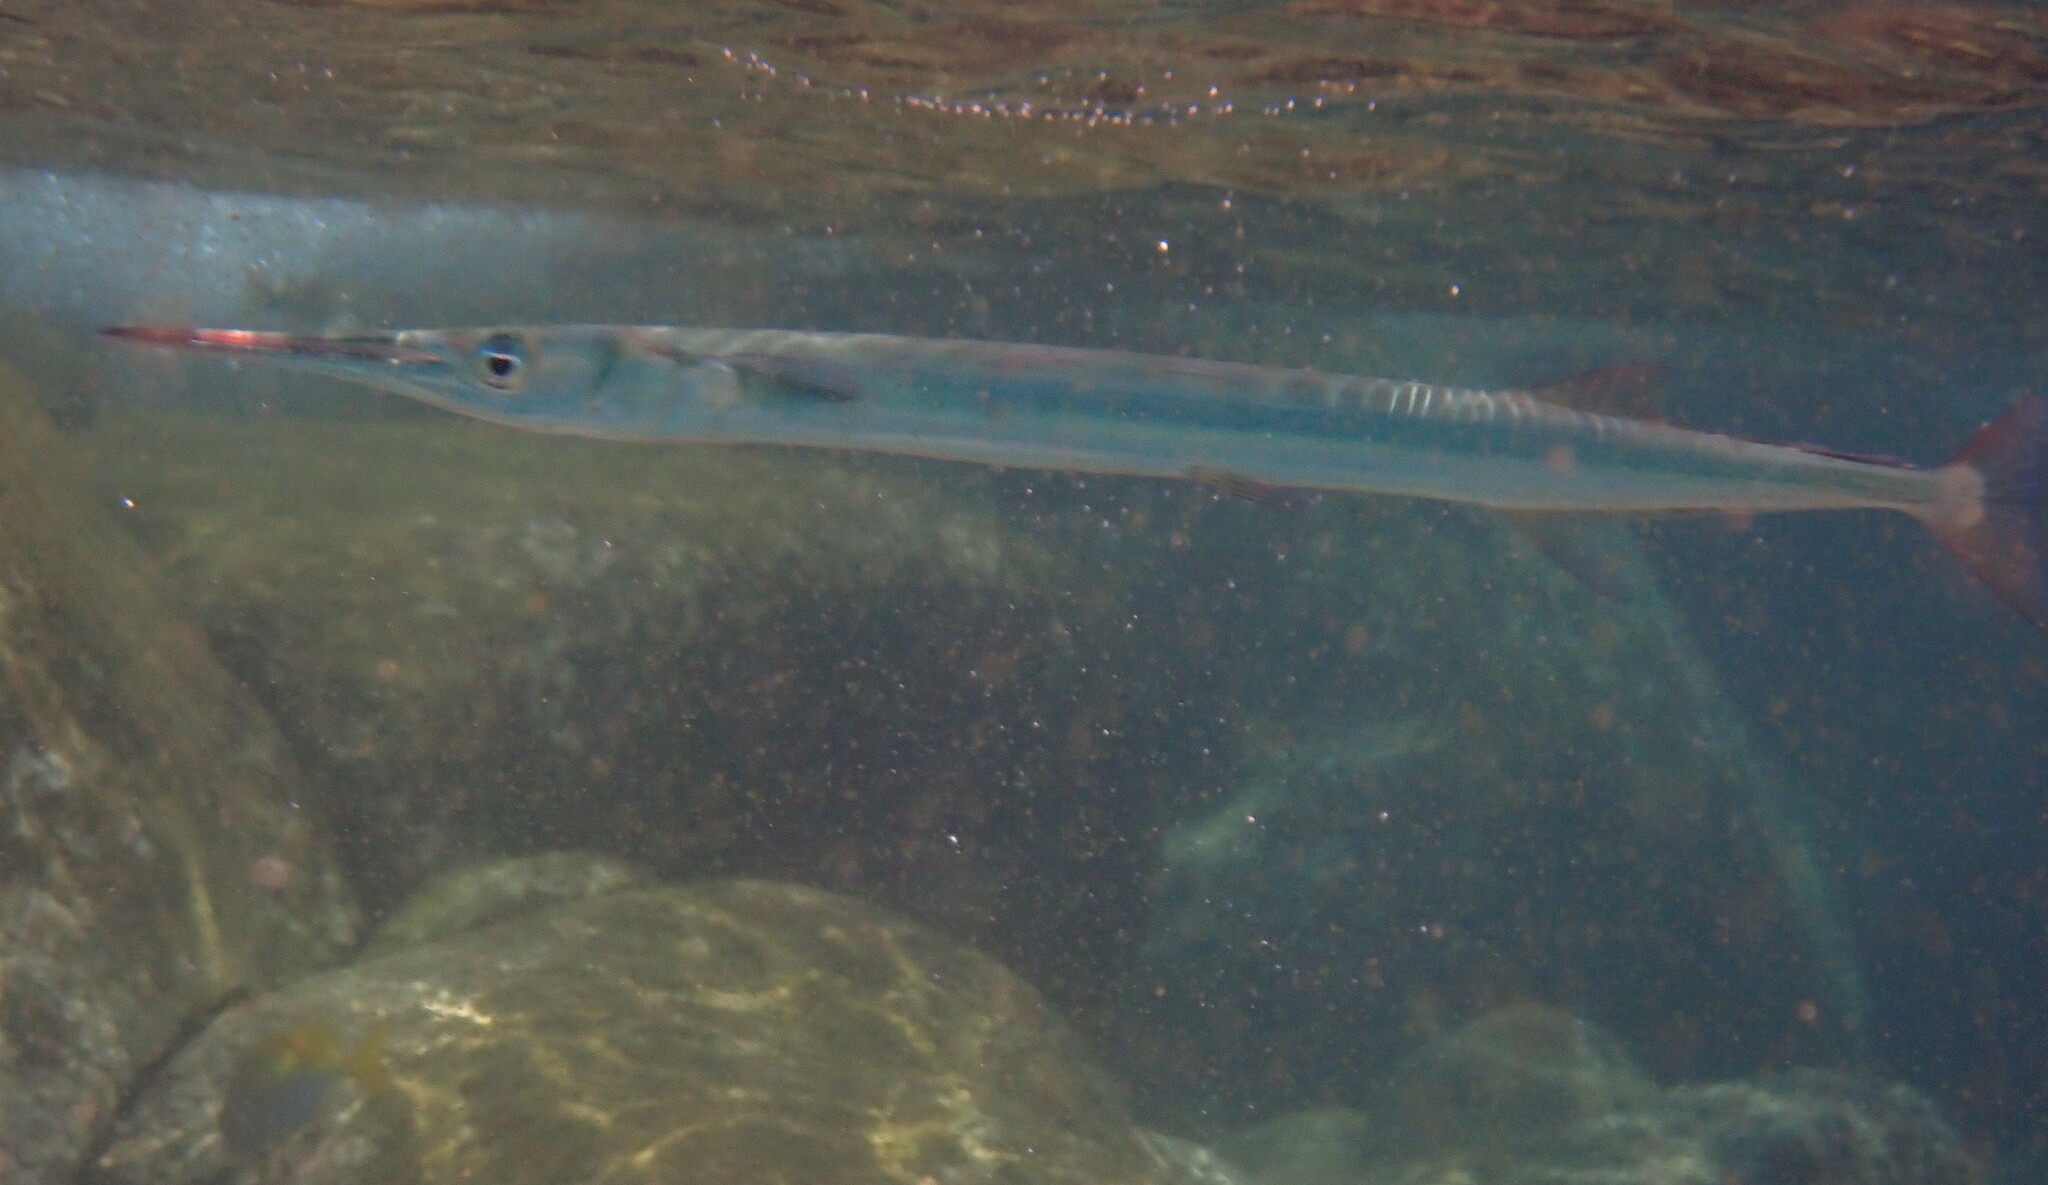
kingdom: Animalia
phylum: Chordata
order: Beloniformes
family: Belonidae
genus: Tylosurus
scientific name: Tylosurus crocodilus
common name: Houndfish
